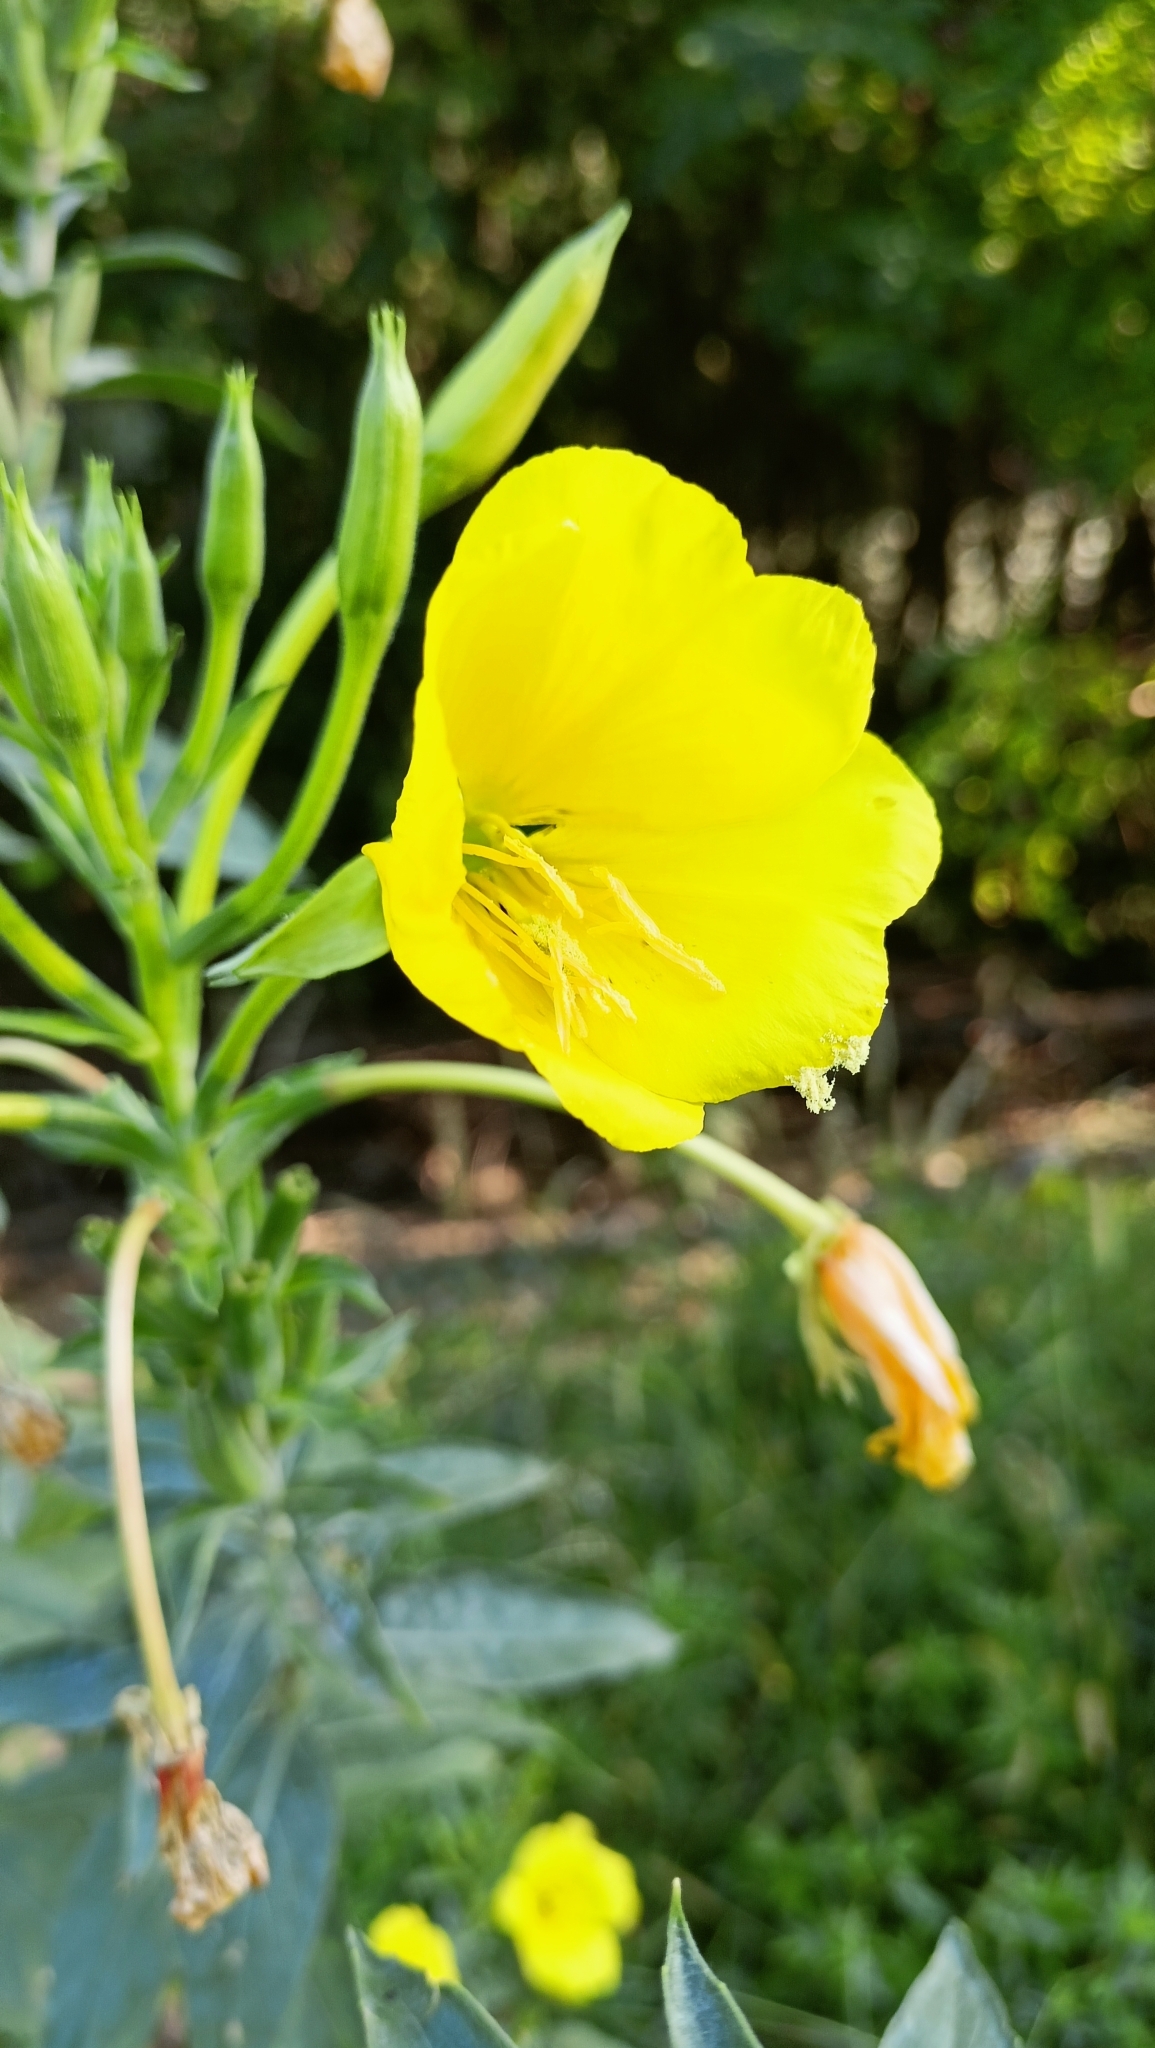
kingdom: Plantae
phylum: Tracheophyta
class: Magnoliopsida
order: Myrtales
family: Onagraceae
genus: Oenothera
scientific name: Oenothera stucchii
